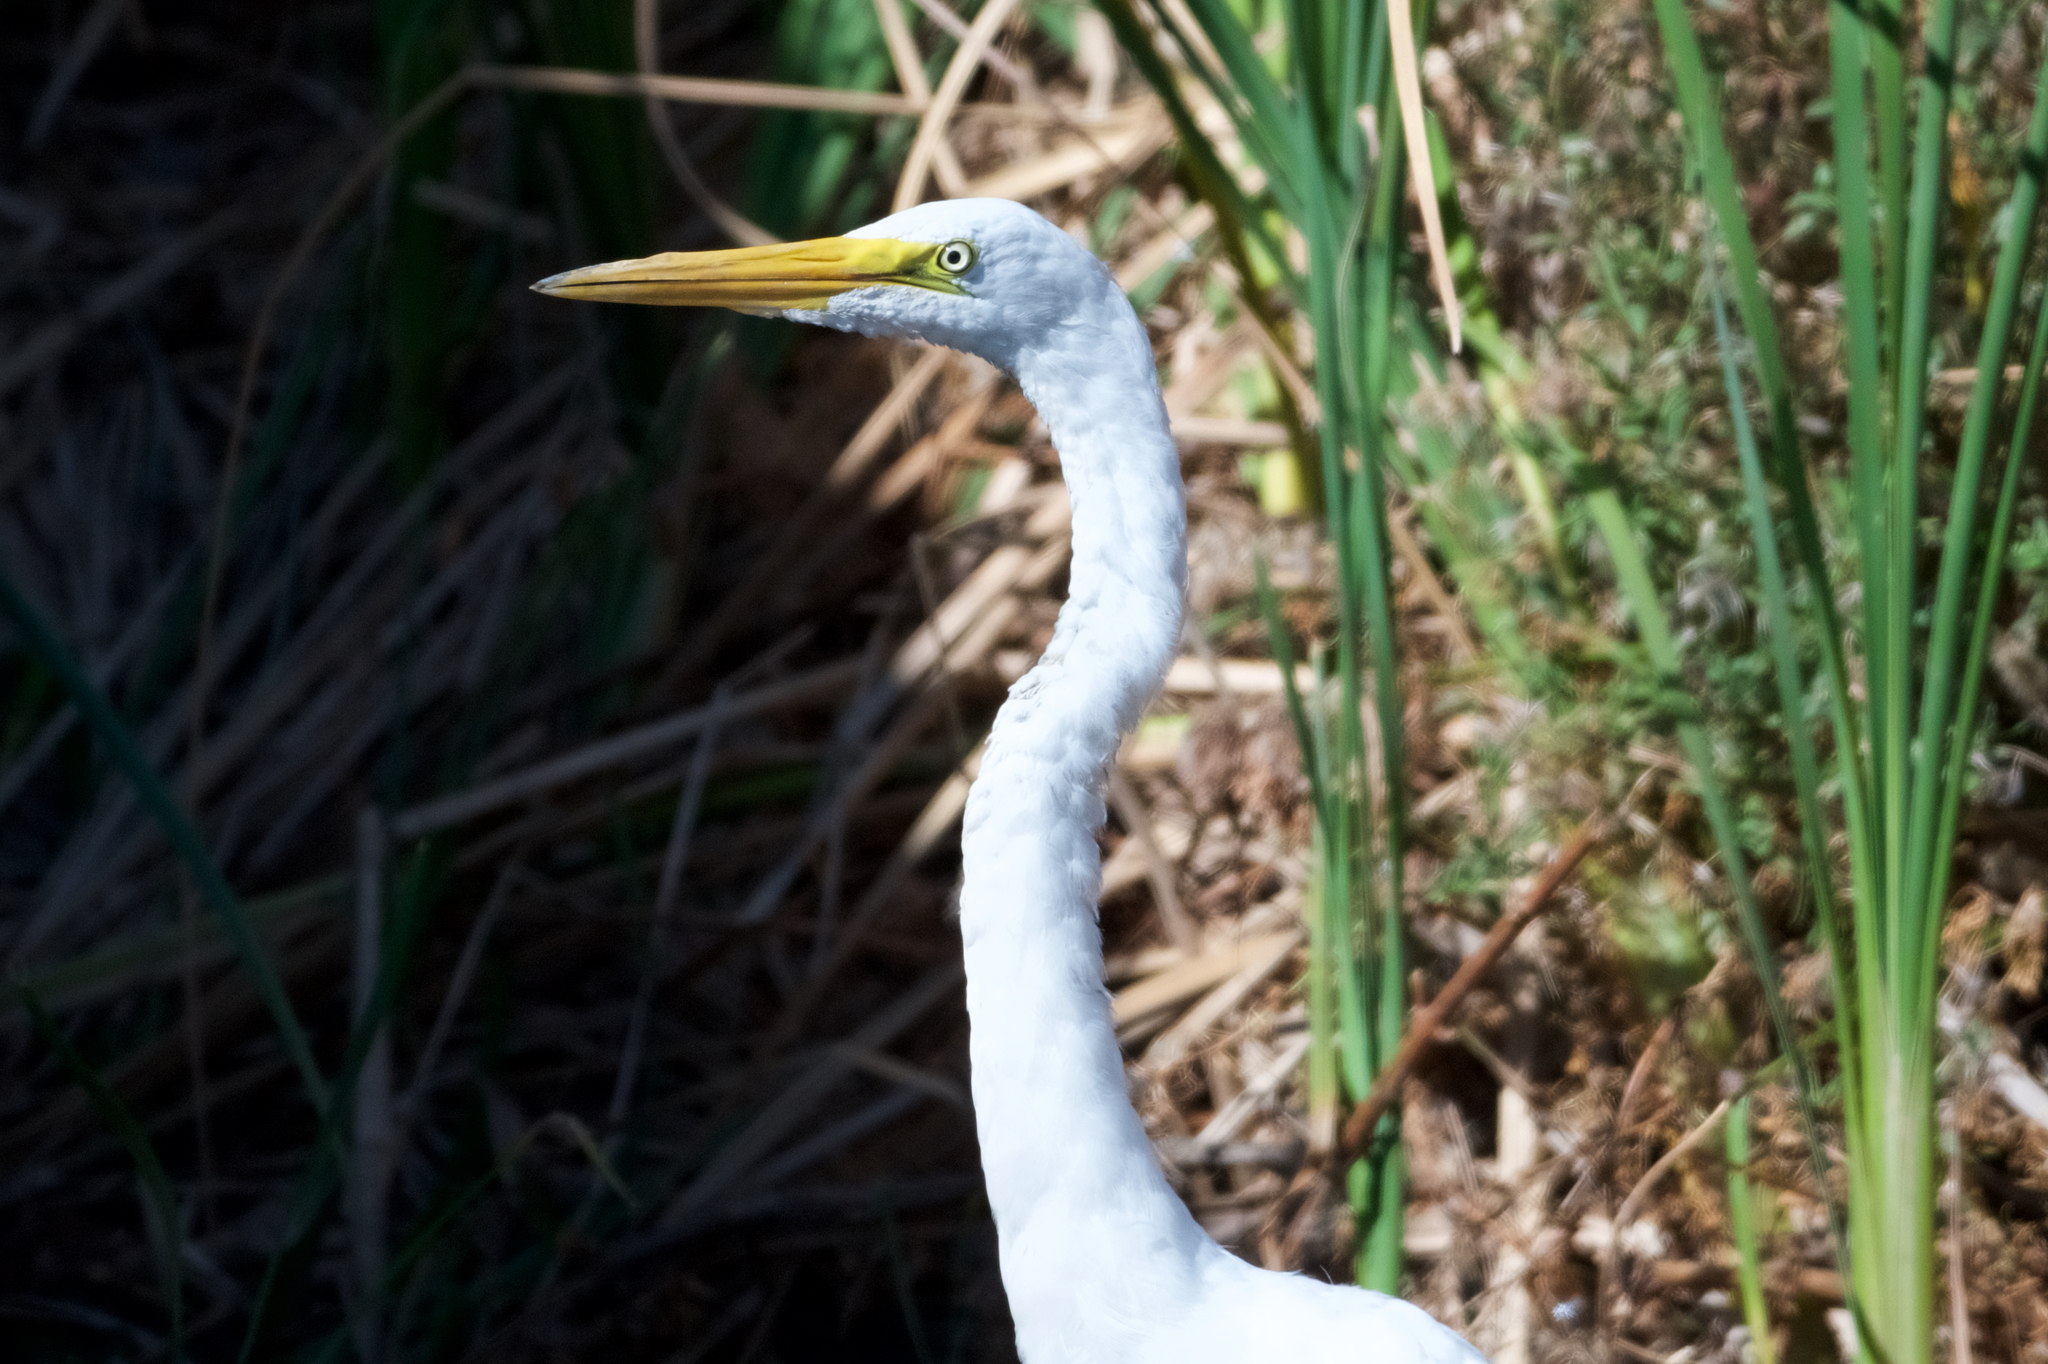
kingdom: Animalia
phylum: Chordata
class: Aves
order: Pelecaniformes
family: Ardeidae
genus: Ardea
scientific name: Ardea alba
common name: Great egret
